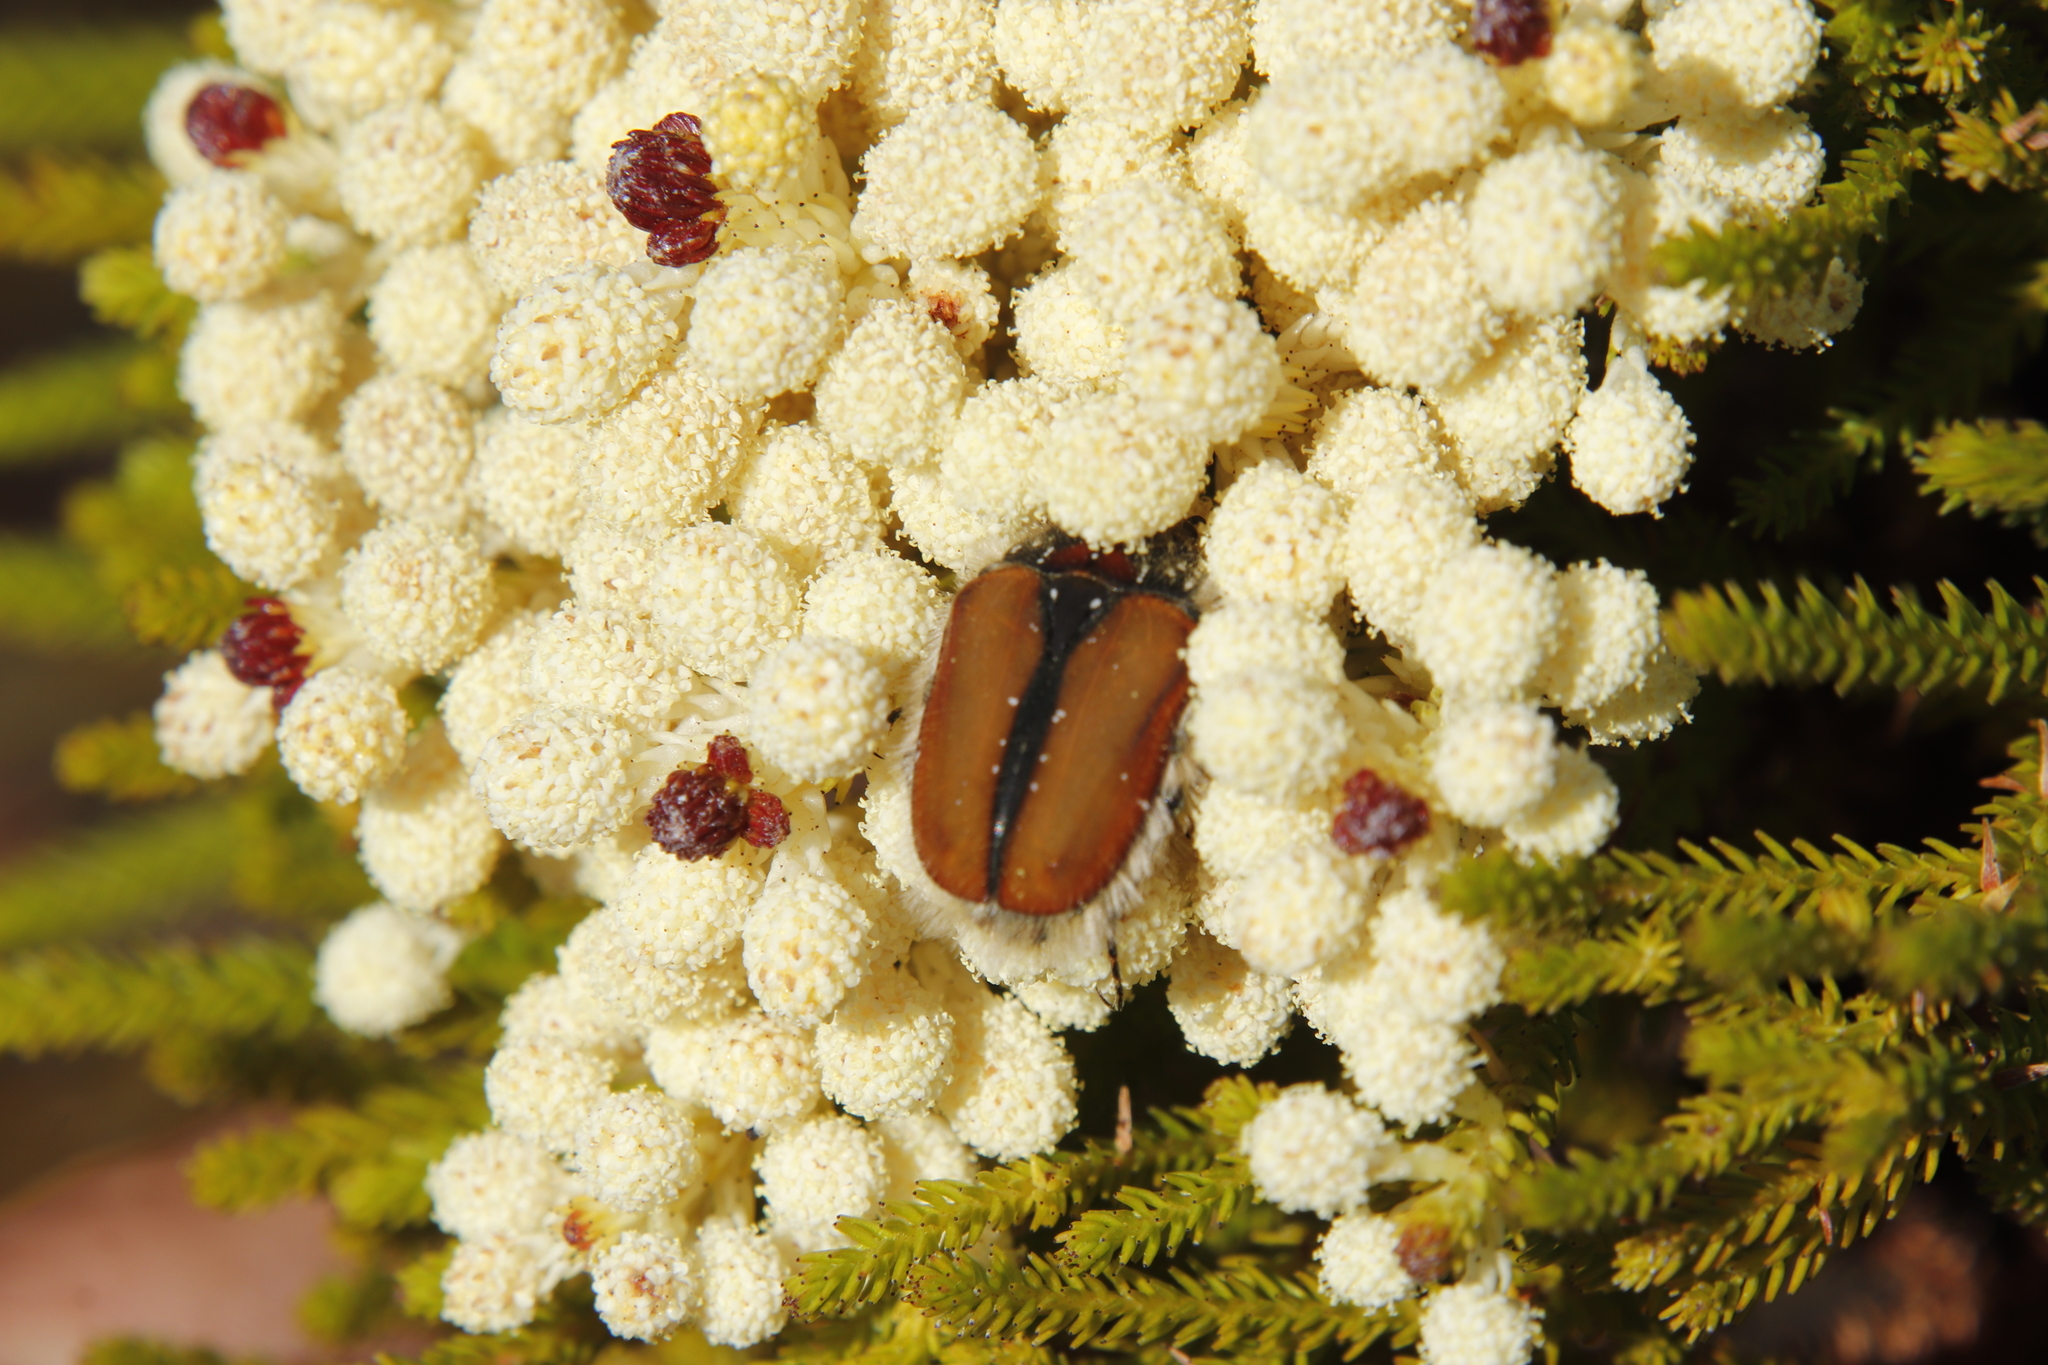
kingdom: Animalia
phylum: Arthropoda
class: Insecta
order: Coleoptera
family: Scarabaeidae
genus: Trichostetha
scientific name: Trichostetha capensis
